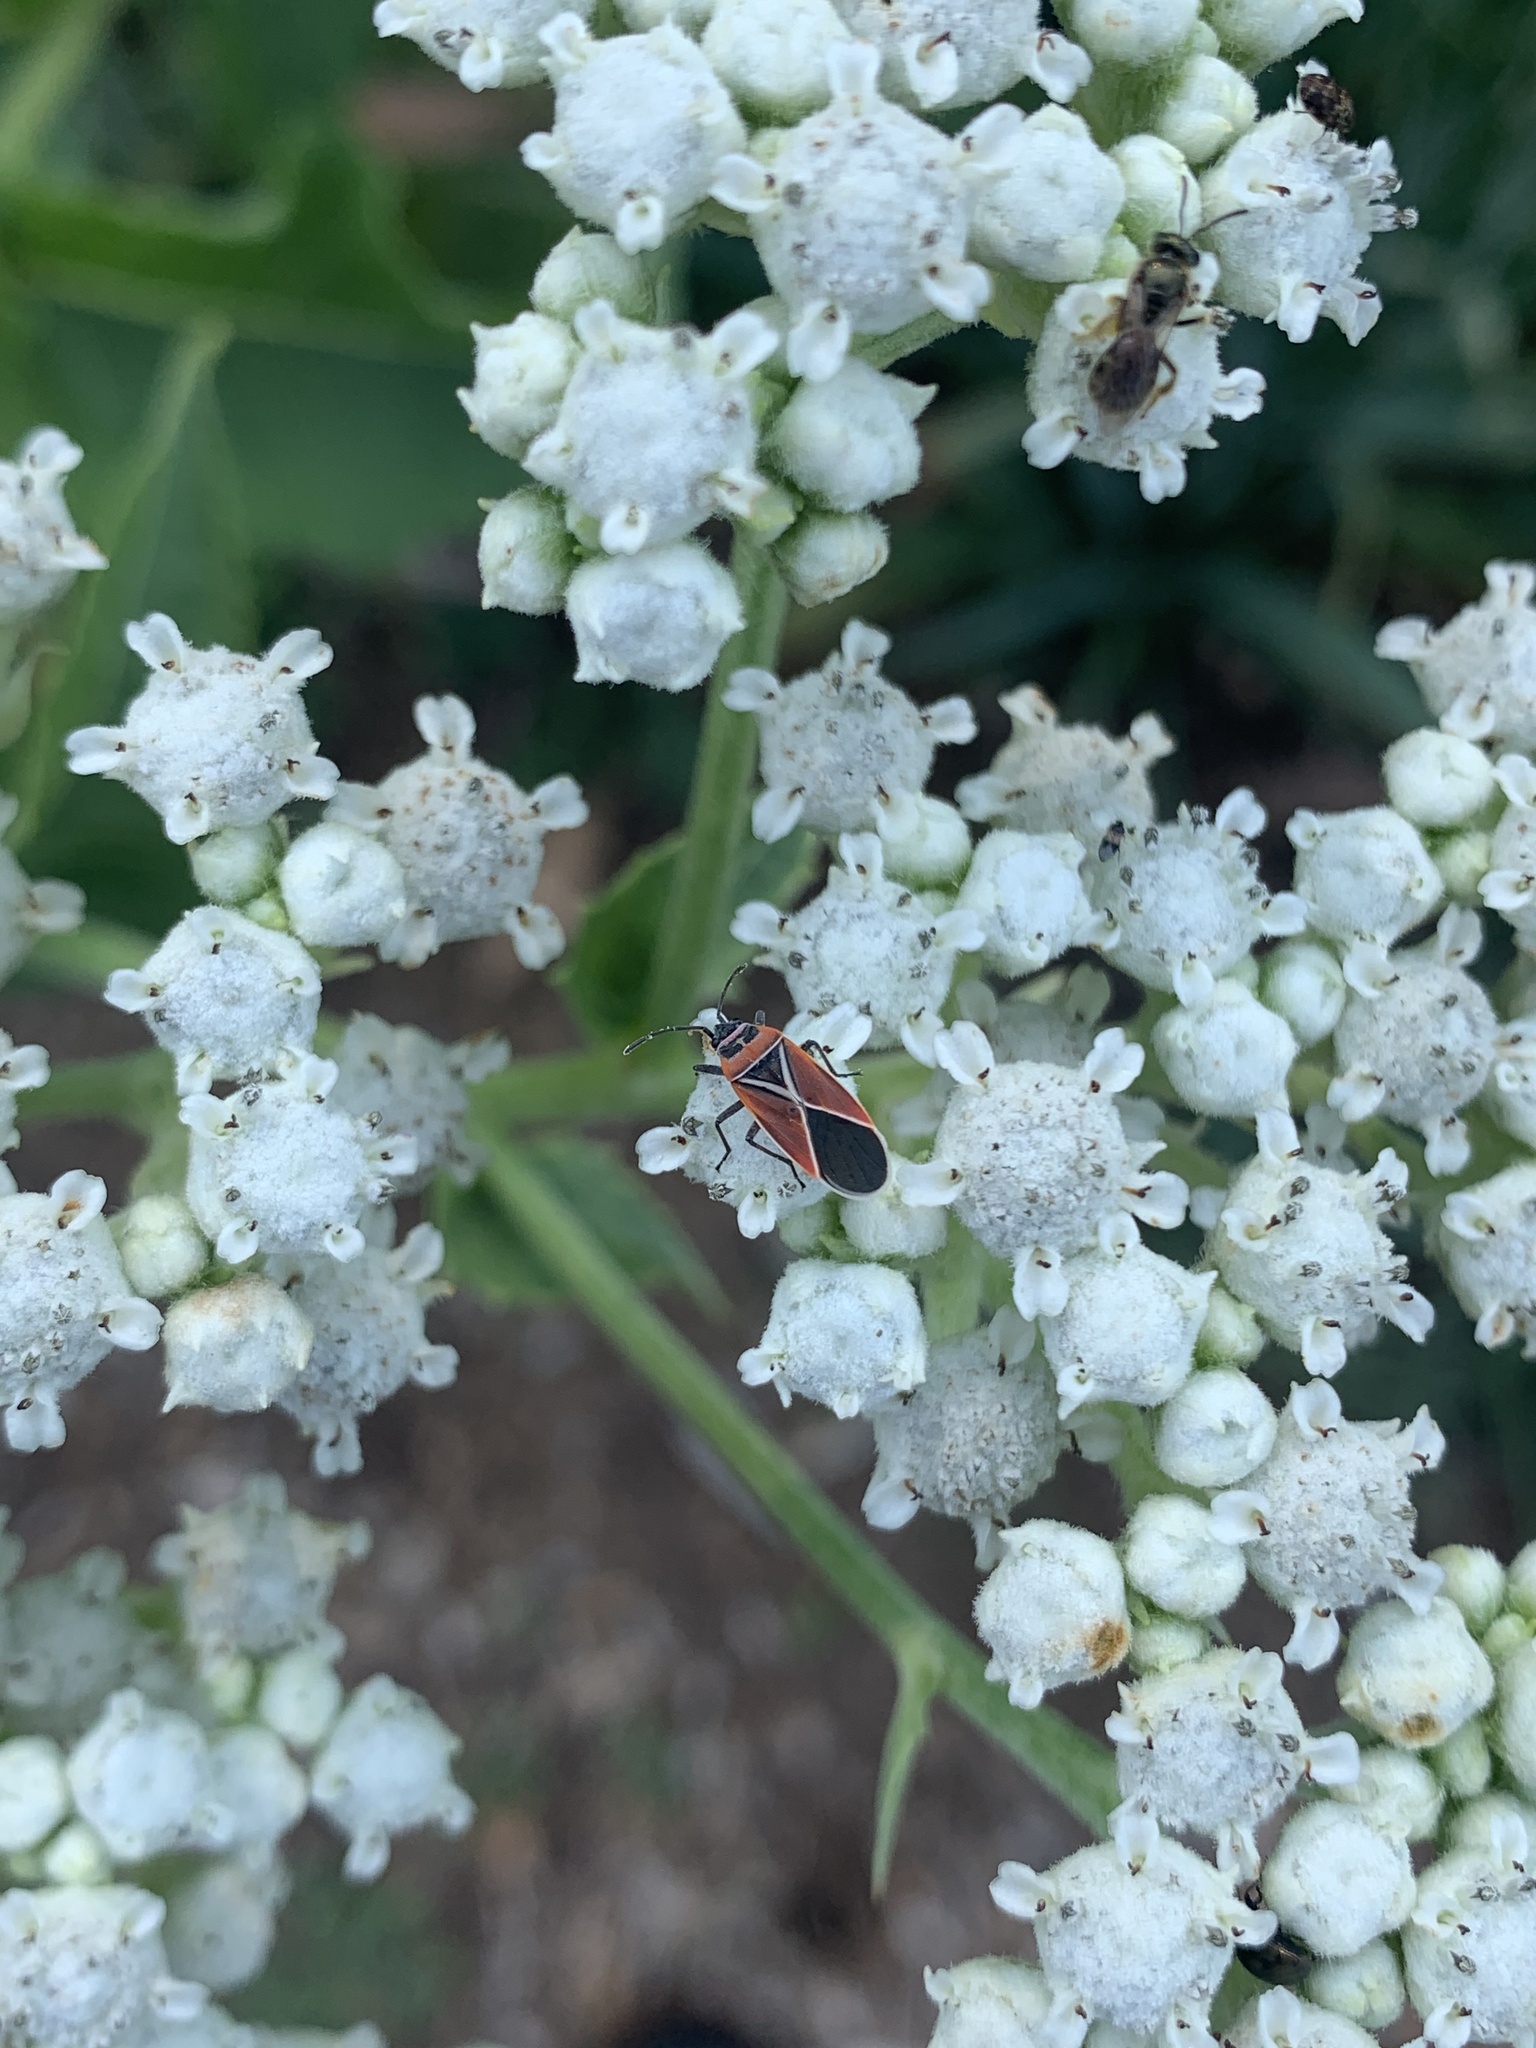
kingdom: Animalia
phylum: Arthropoda
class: Insecta
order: Hemiptera
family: Lygaeidae
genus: Neacoryphus
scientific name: Neacoryphus bicrucis
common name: Lygaeid bug
